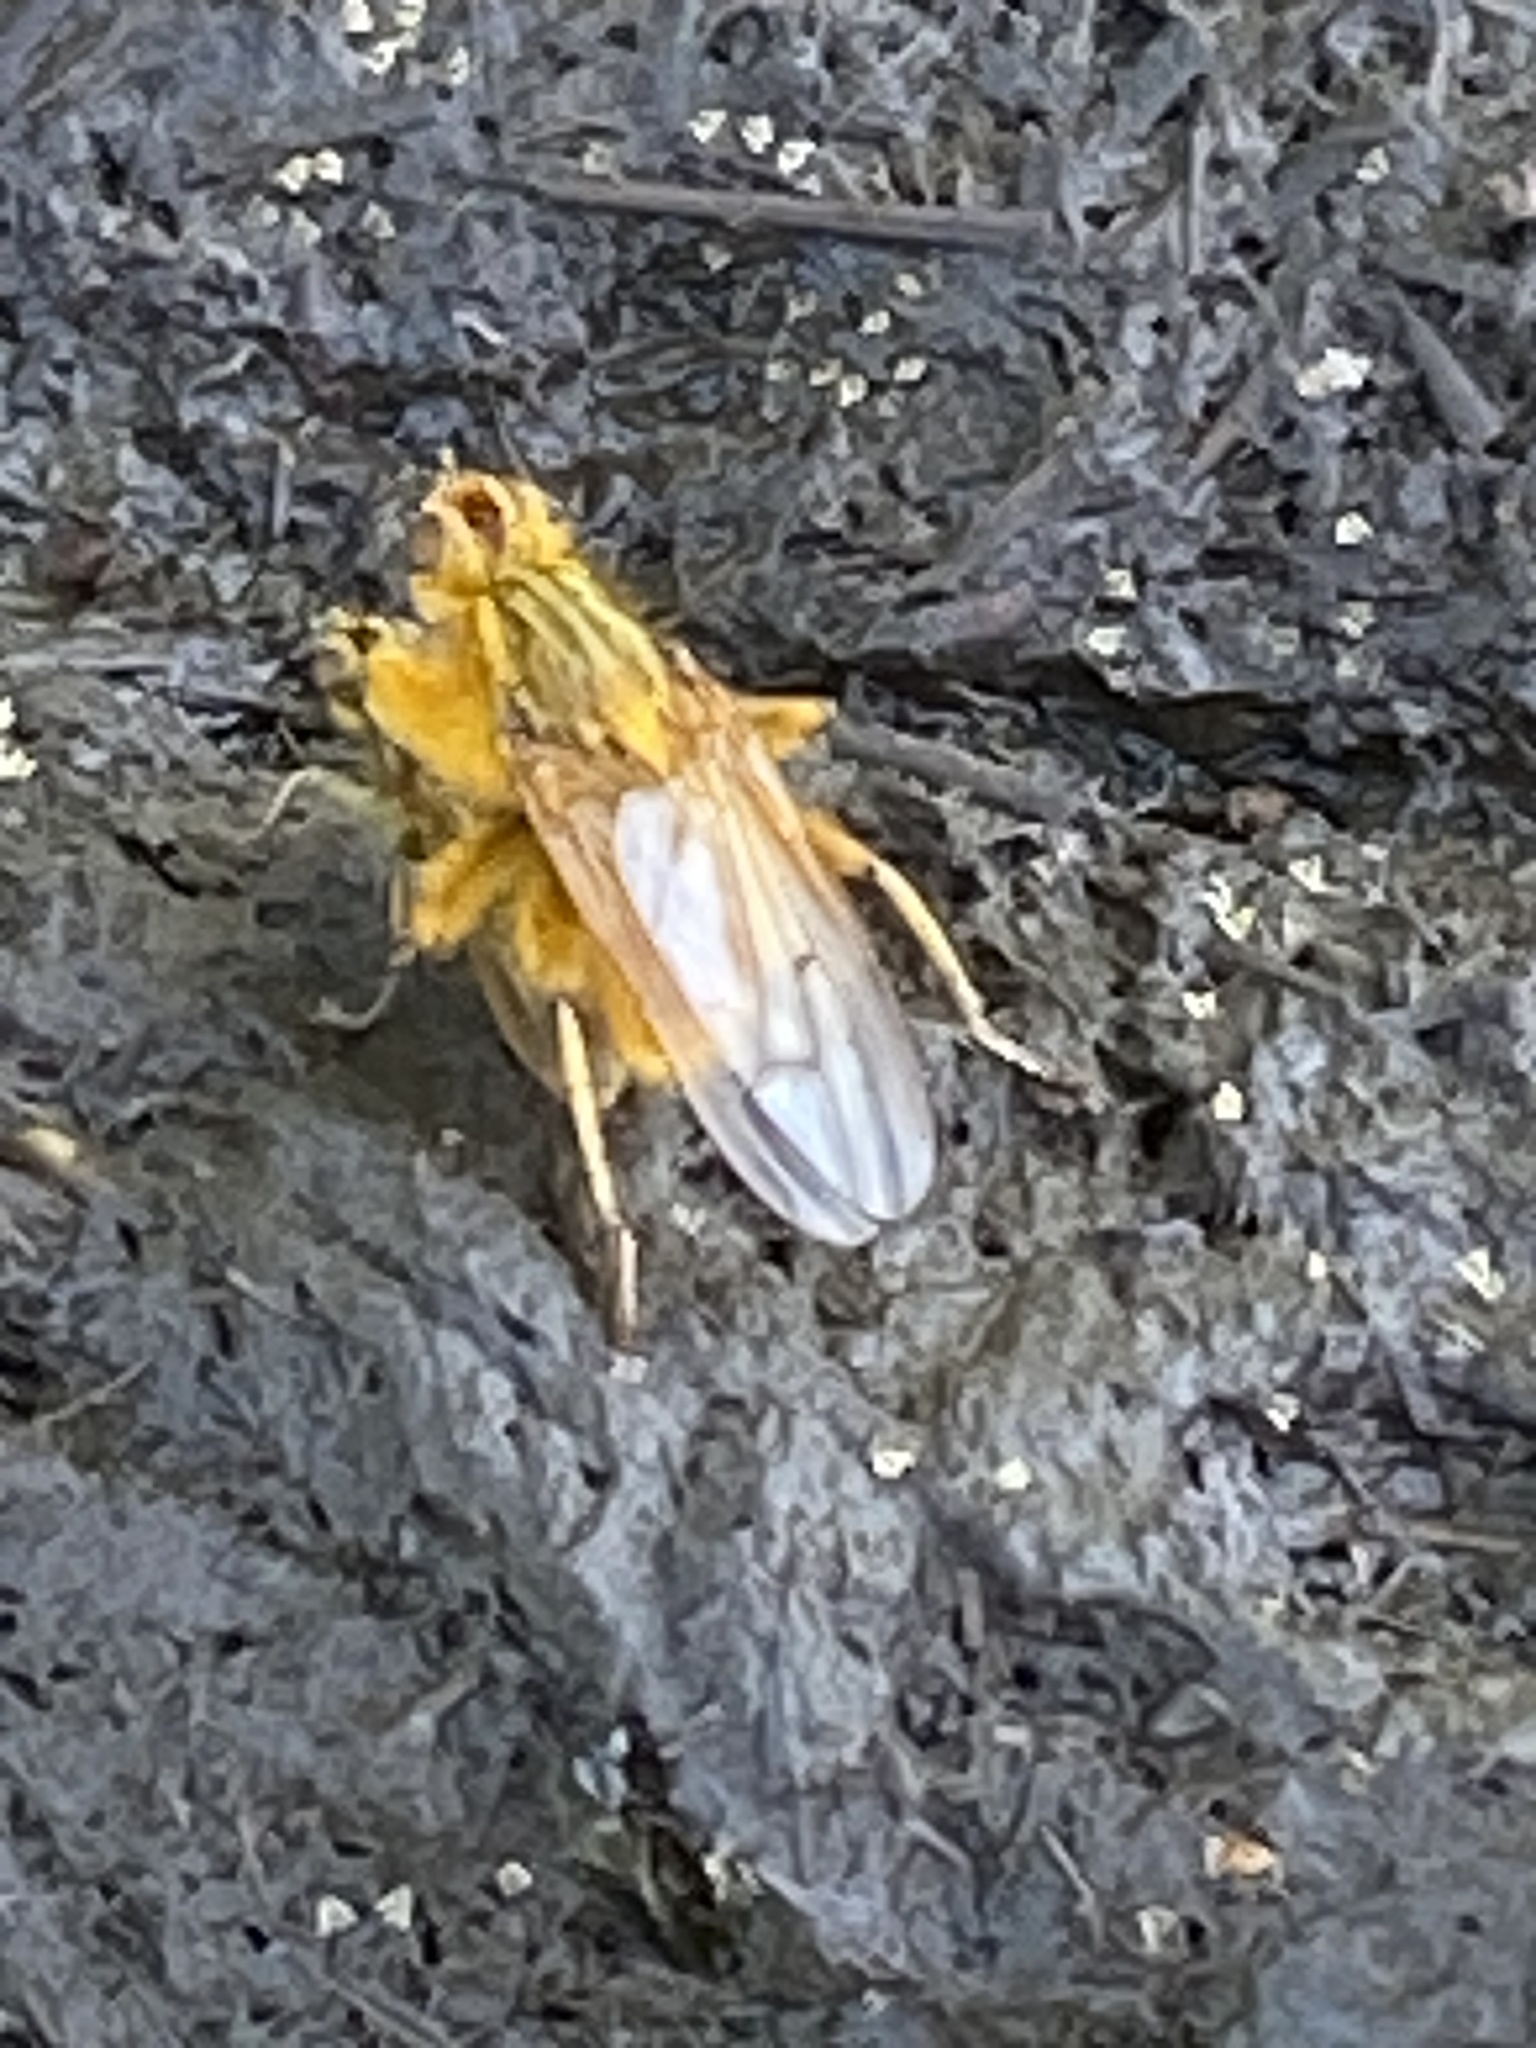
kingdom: Animalia
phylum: Arthropoda
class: Insecta
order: Diptera
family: Scathophagidae
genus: Scathophaga
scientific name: Scathophaga stercoraria
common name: Yellow dung fly
